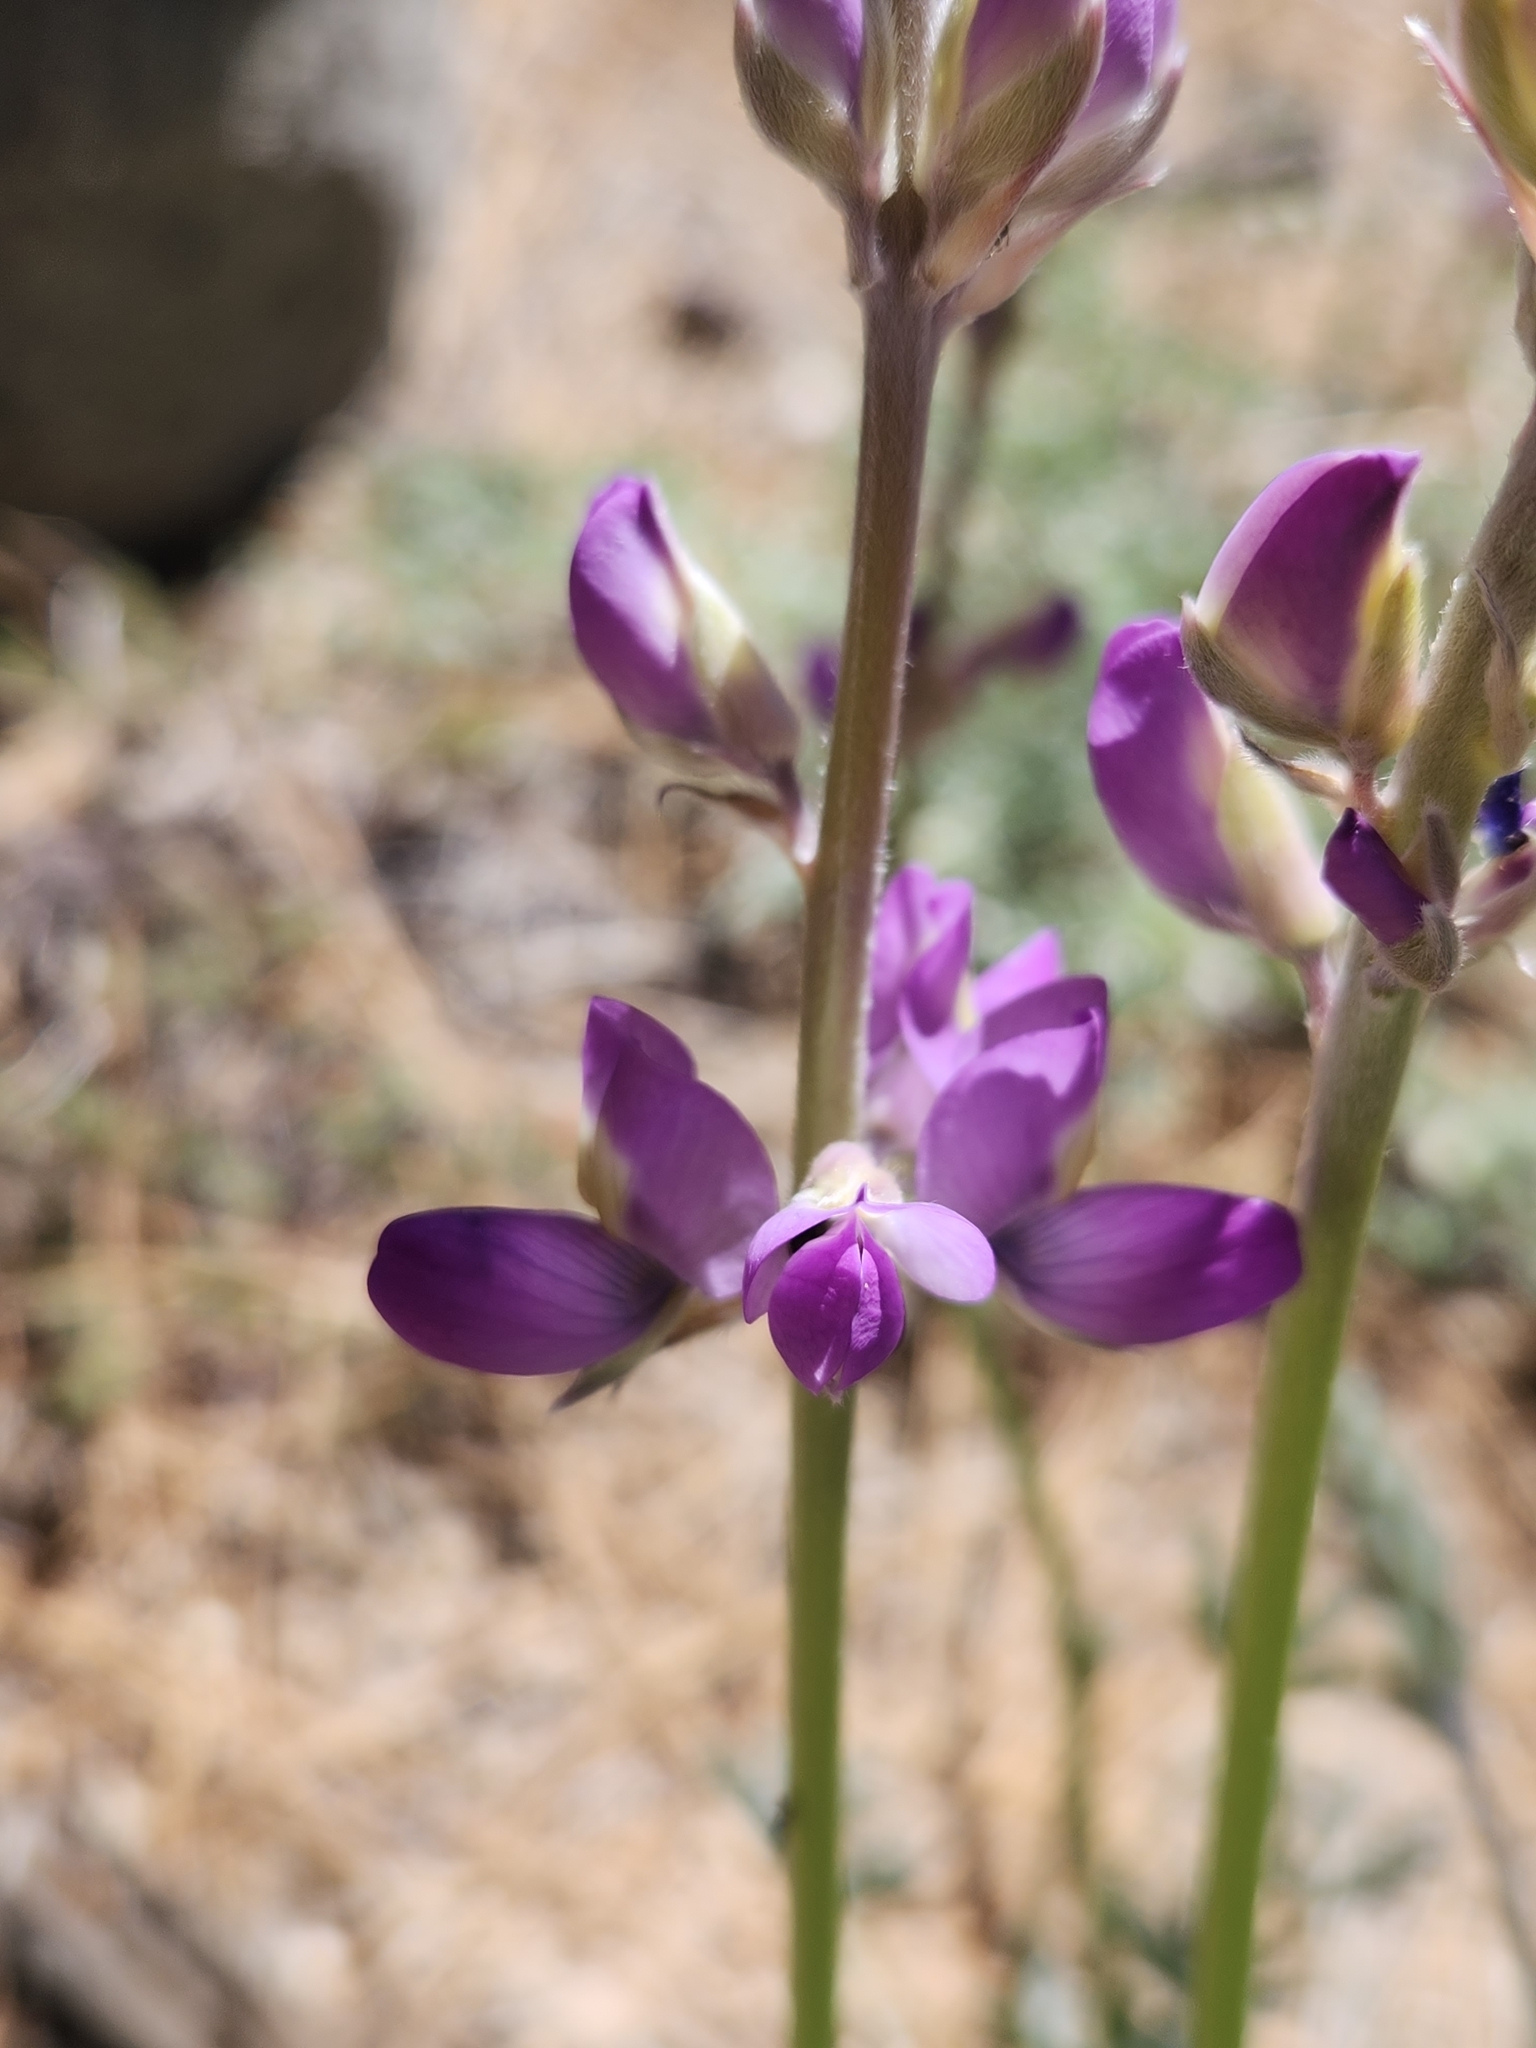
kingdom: Plantae
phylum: Tracheophyta
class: Magnoliopsida
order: Fabales
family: Fabaceae
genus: Lupinus
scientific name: Lupinus excubitus
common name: Grape soda lupine
